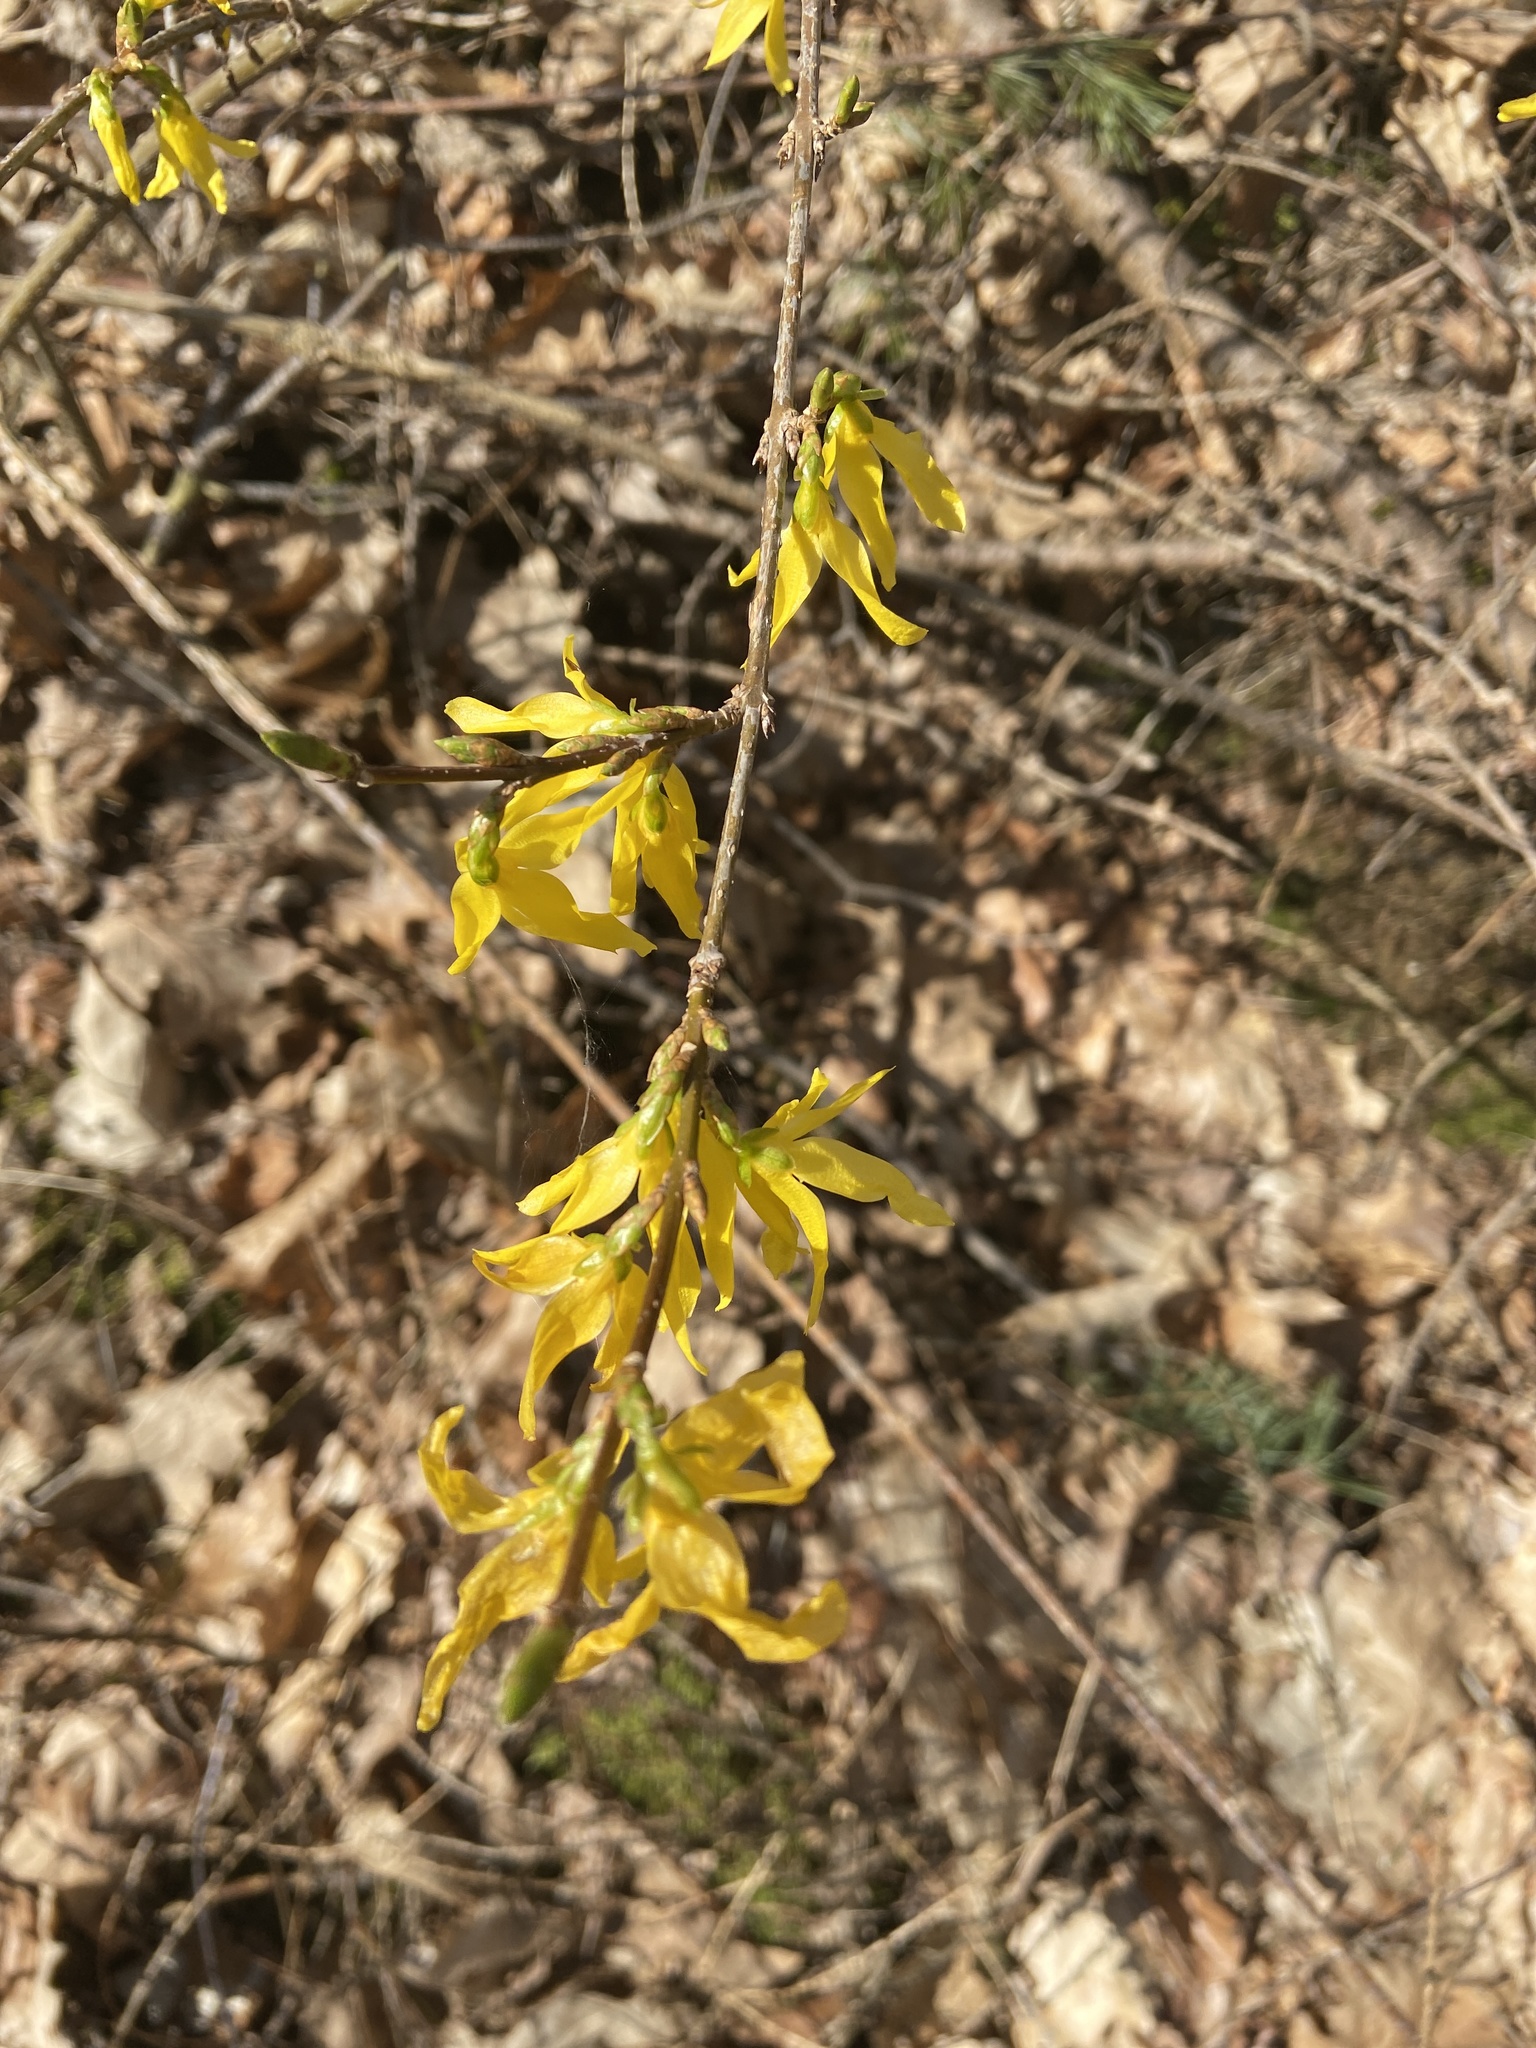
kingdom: Plantae
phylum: Tracheophyta
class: Magnoliopsida
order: Lamiales
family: Oleaceae
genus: Forsythia
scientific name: Forsythia intermedia
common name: Forsythia
